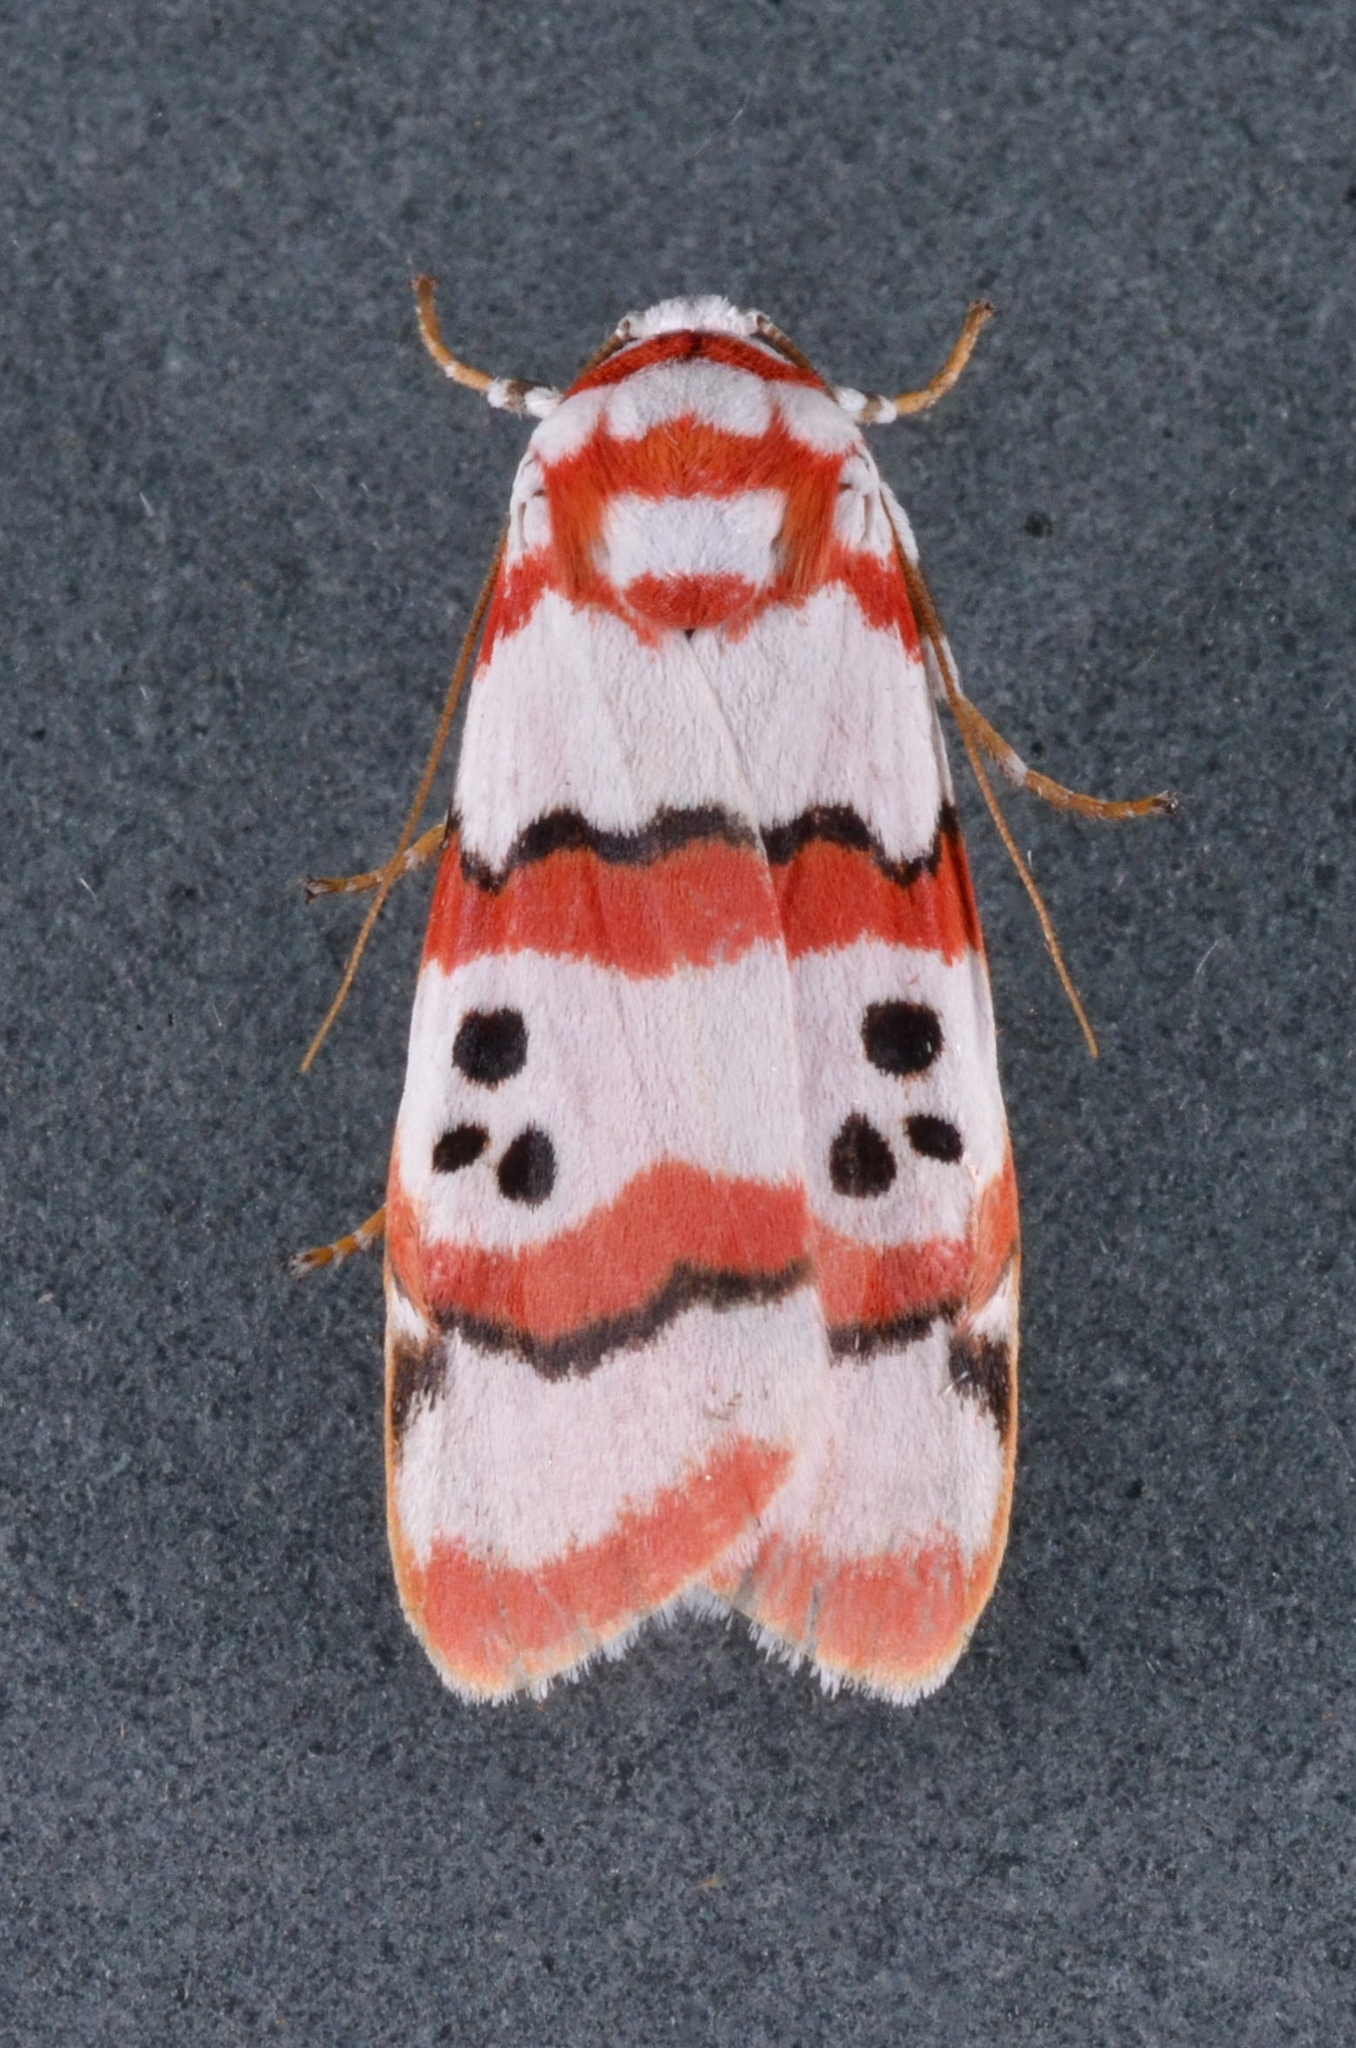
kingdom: Animalia
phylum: Arthropoda
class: Insecta
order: Lepidoptera
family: Erebidae
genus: Cyana
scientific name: Cyana indosinica
